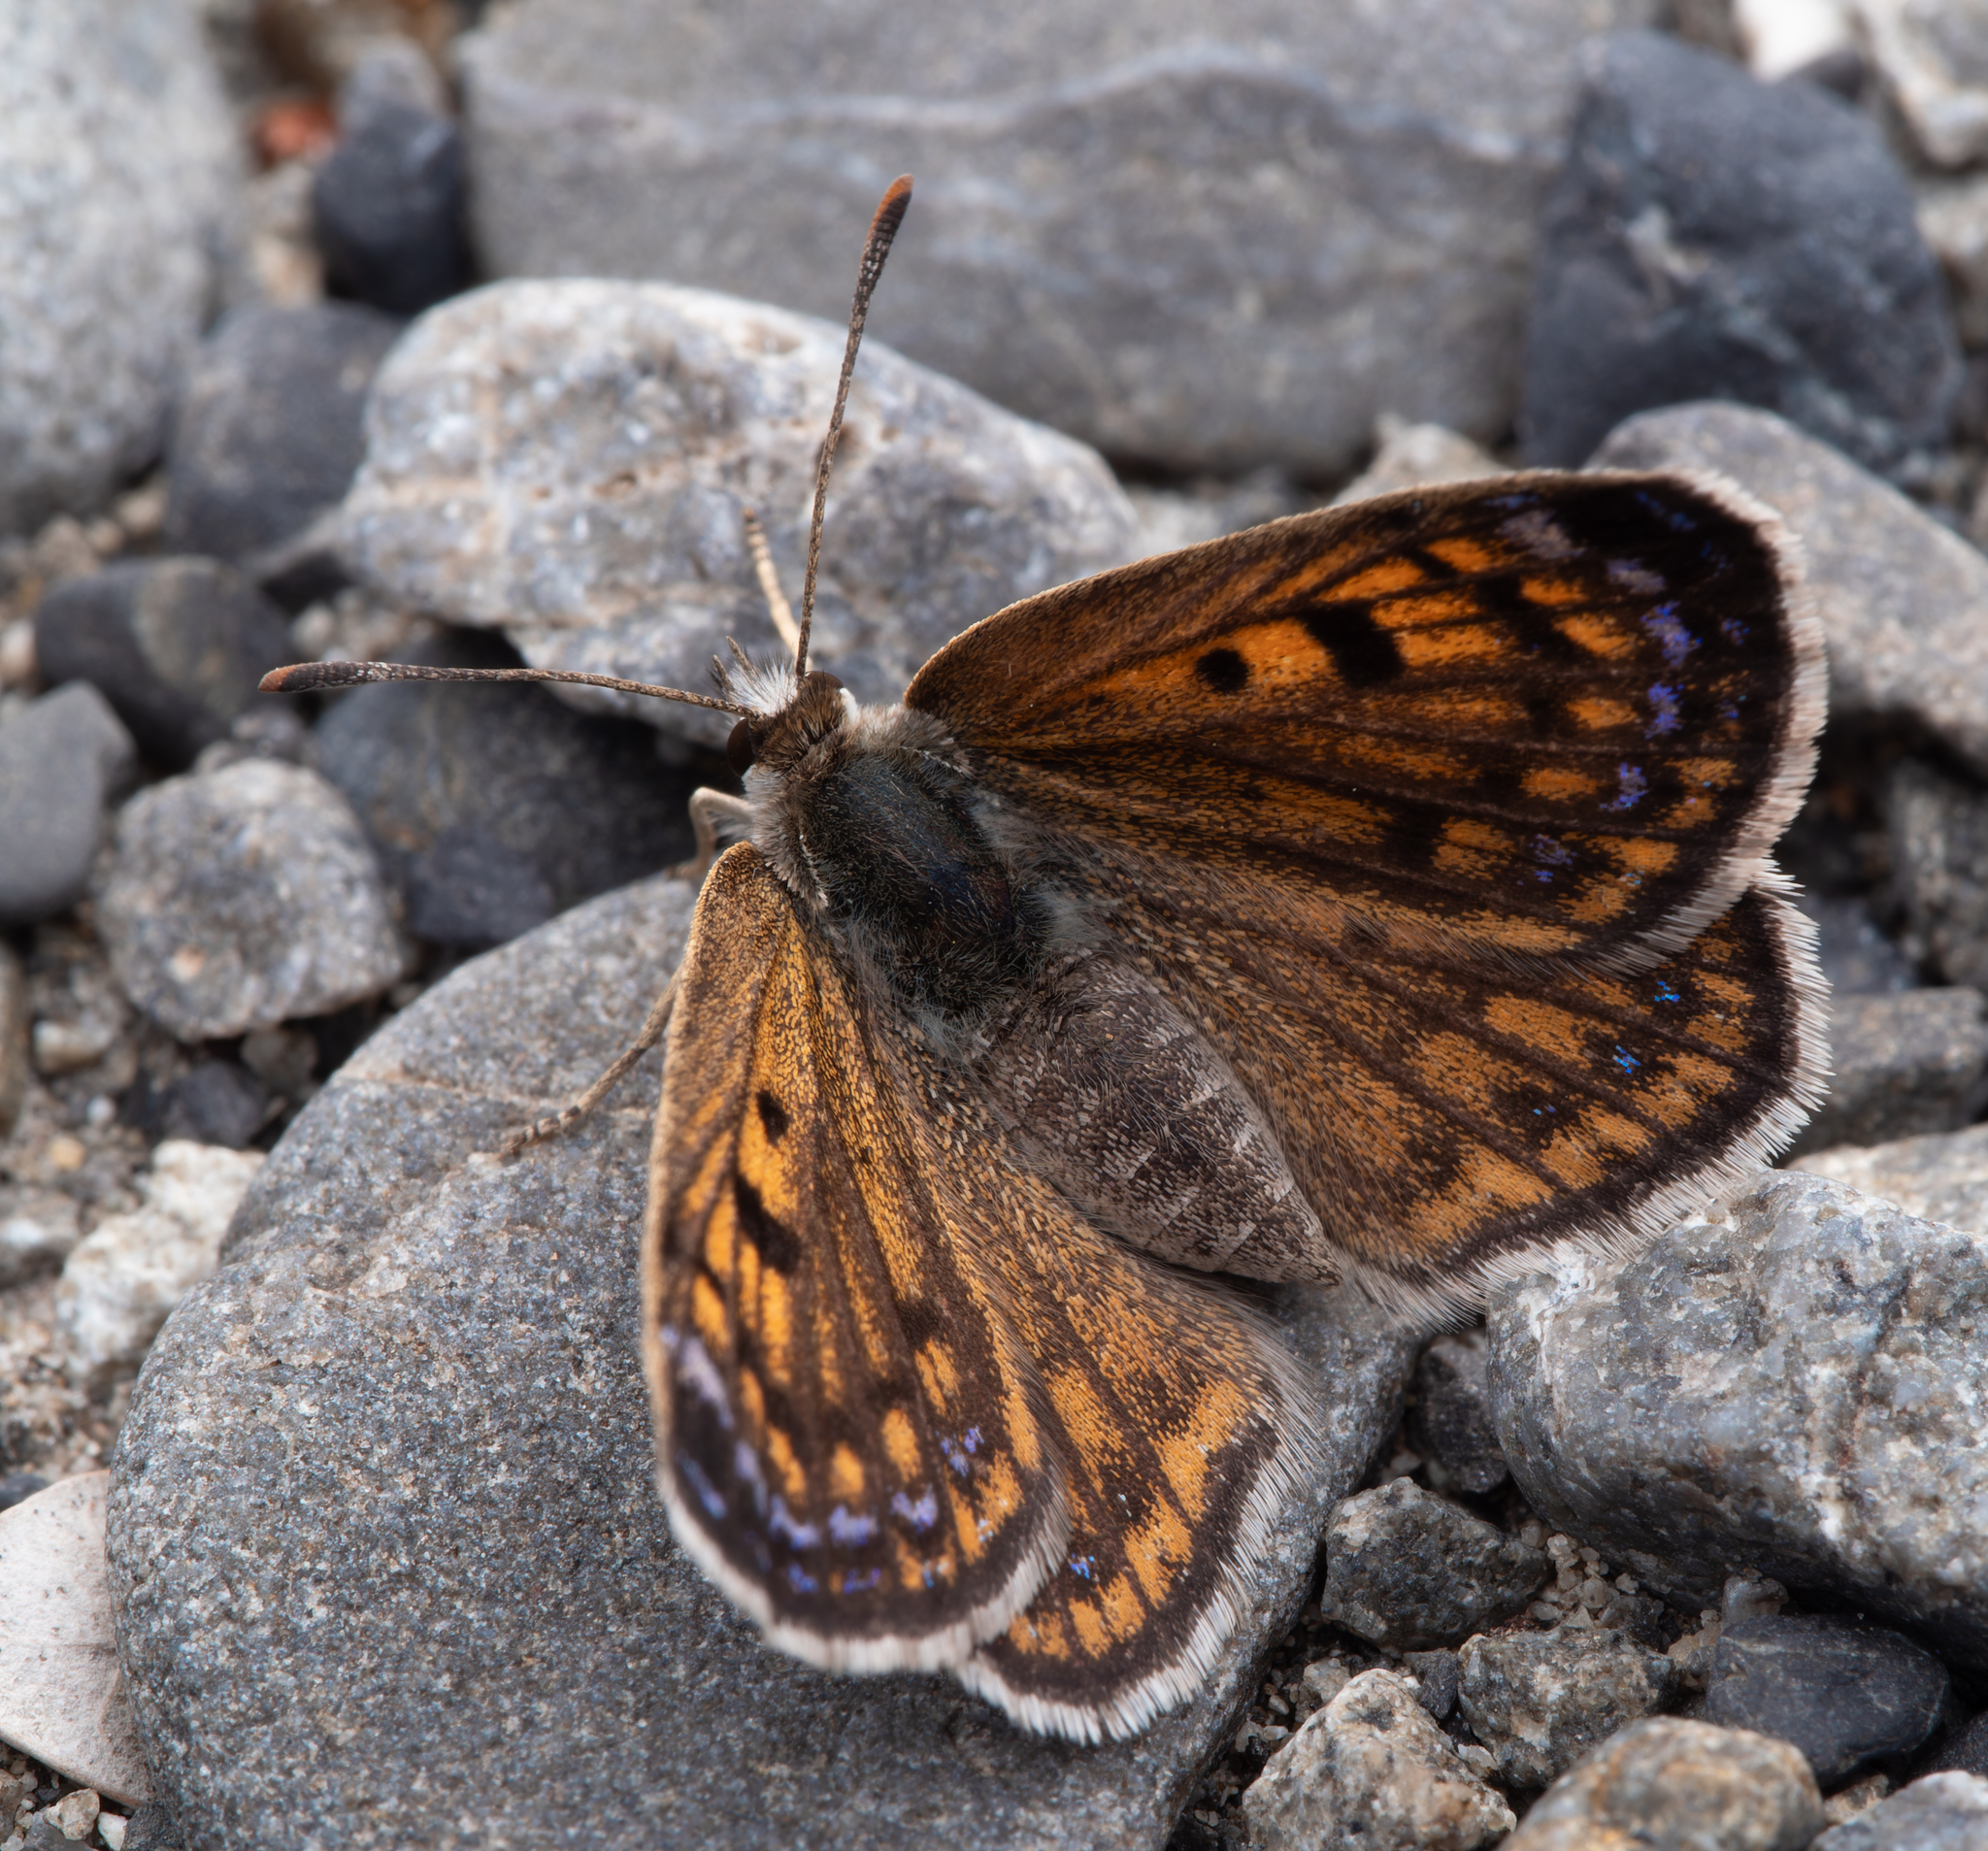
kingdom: Animalia
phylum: Arthropoda
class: Insecta
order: Lepidoptera
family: Lycaenidae
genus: Lycaena
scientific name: Lycaena tama
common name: Canterbury alpine boulder copper
